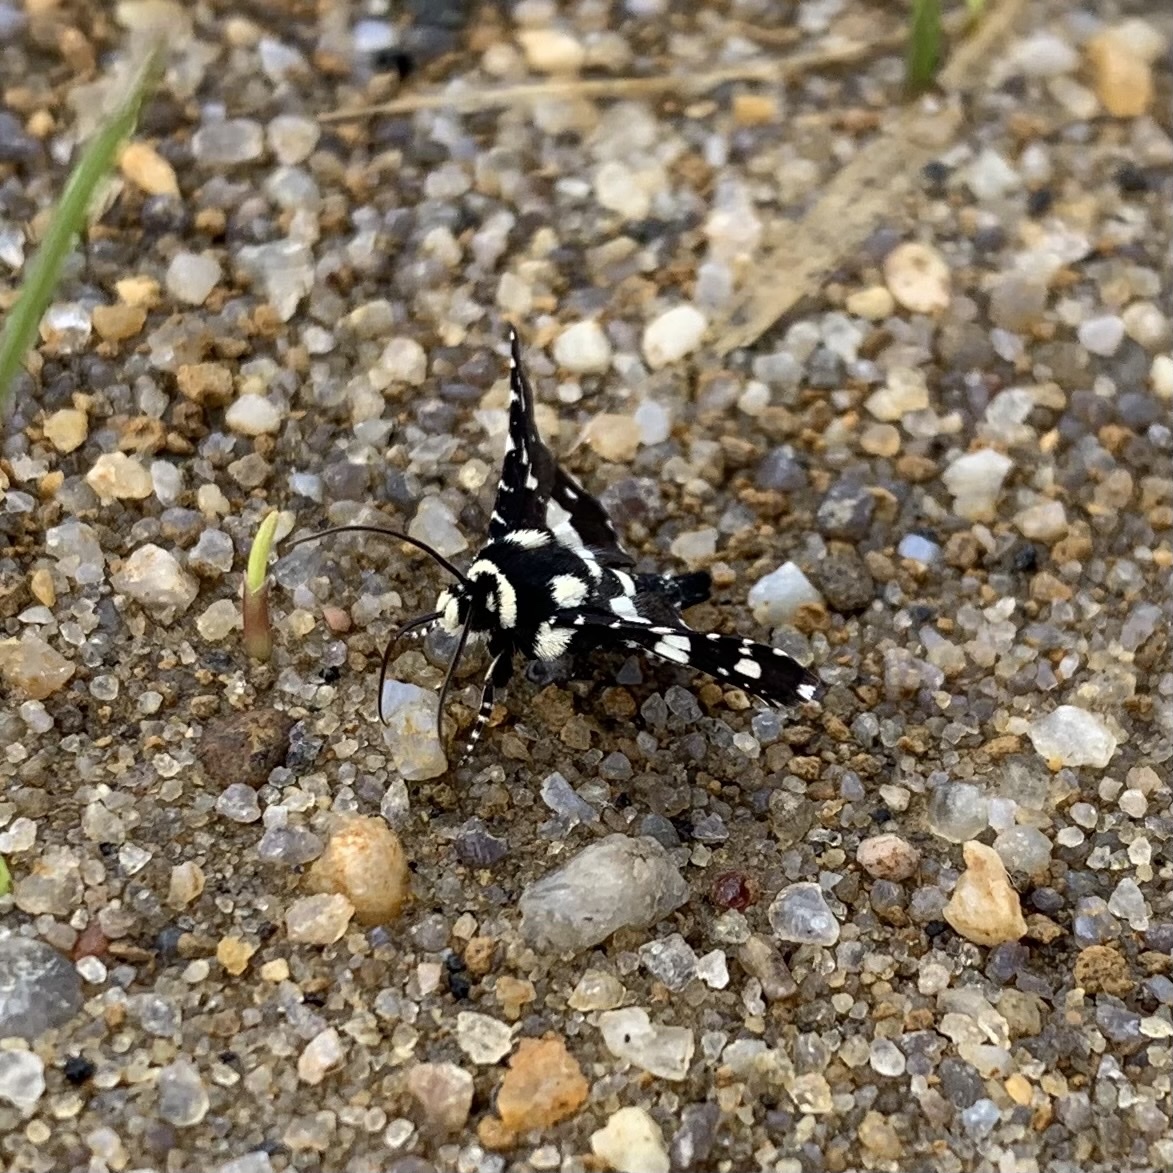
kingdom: Animalia
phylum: Arthropoda
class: Insecta
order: Lepidoptera
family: Thyrididae
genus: Pseudothyris
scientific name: Pseudothyris sepulchralis
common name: Mournful thyris moth
